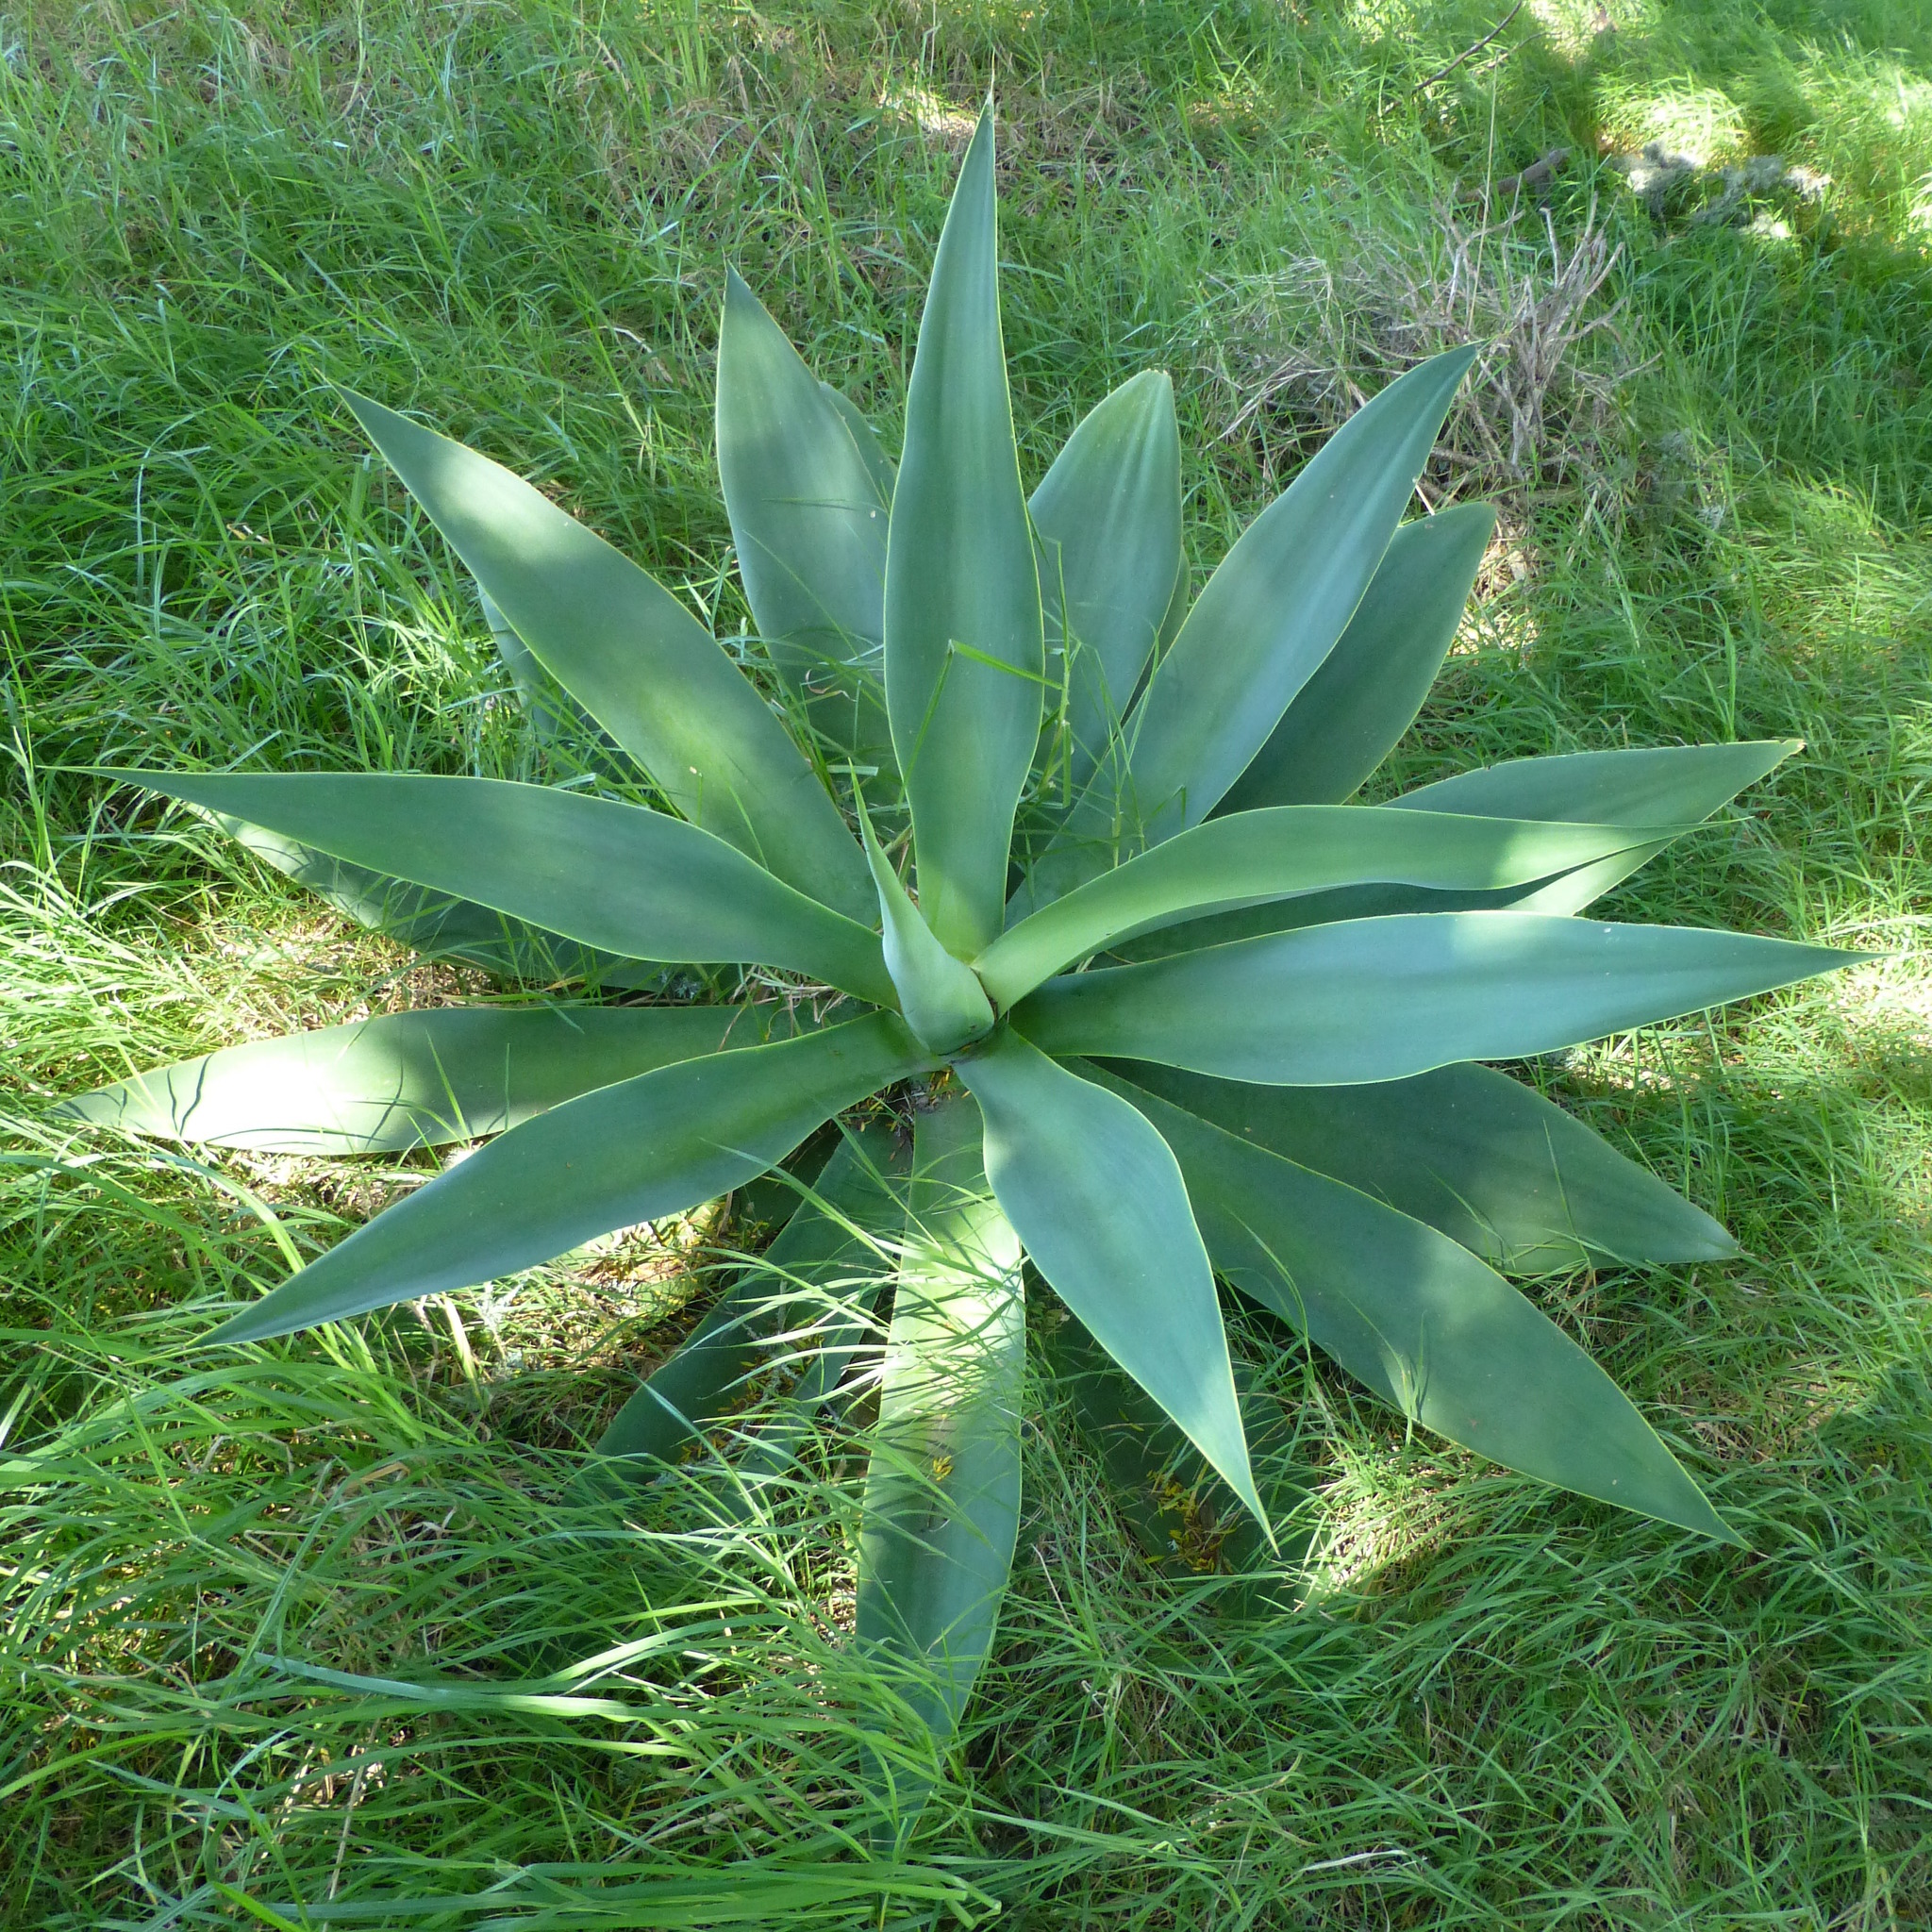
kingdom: Plantae
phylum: Tracheophyta
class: Liliopsida
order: Asparagales
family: Asparagaceae
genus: Agave
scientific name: Agave attenuata
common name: Fox tail agave
